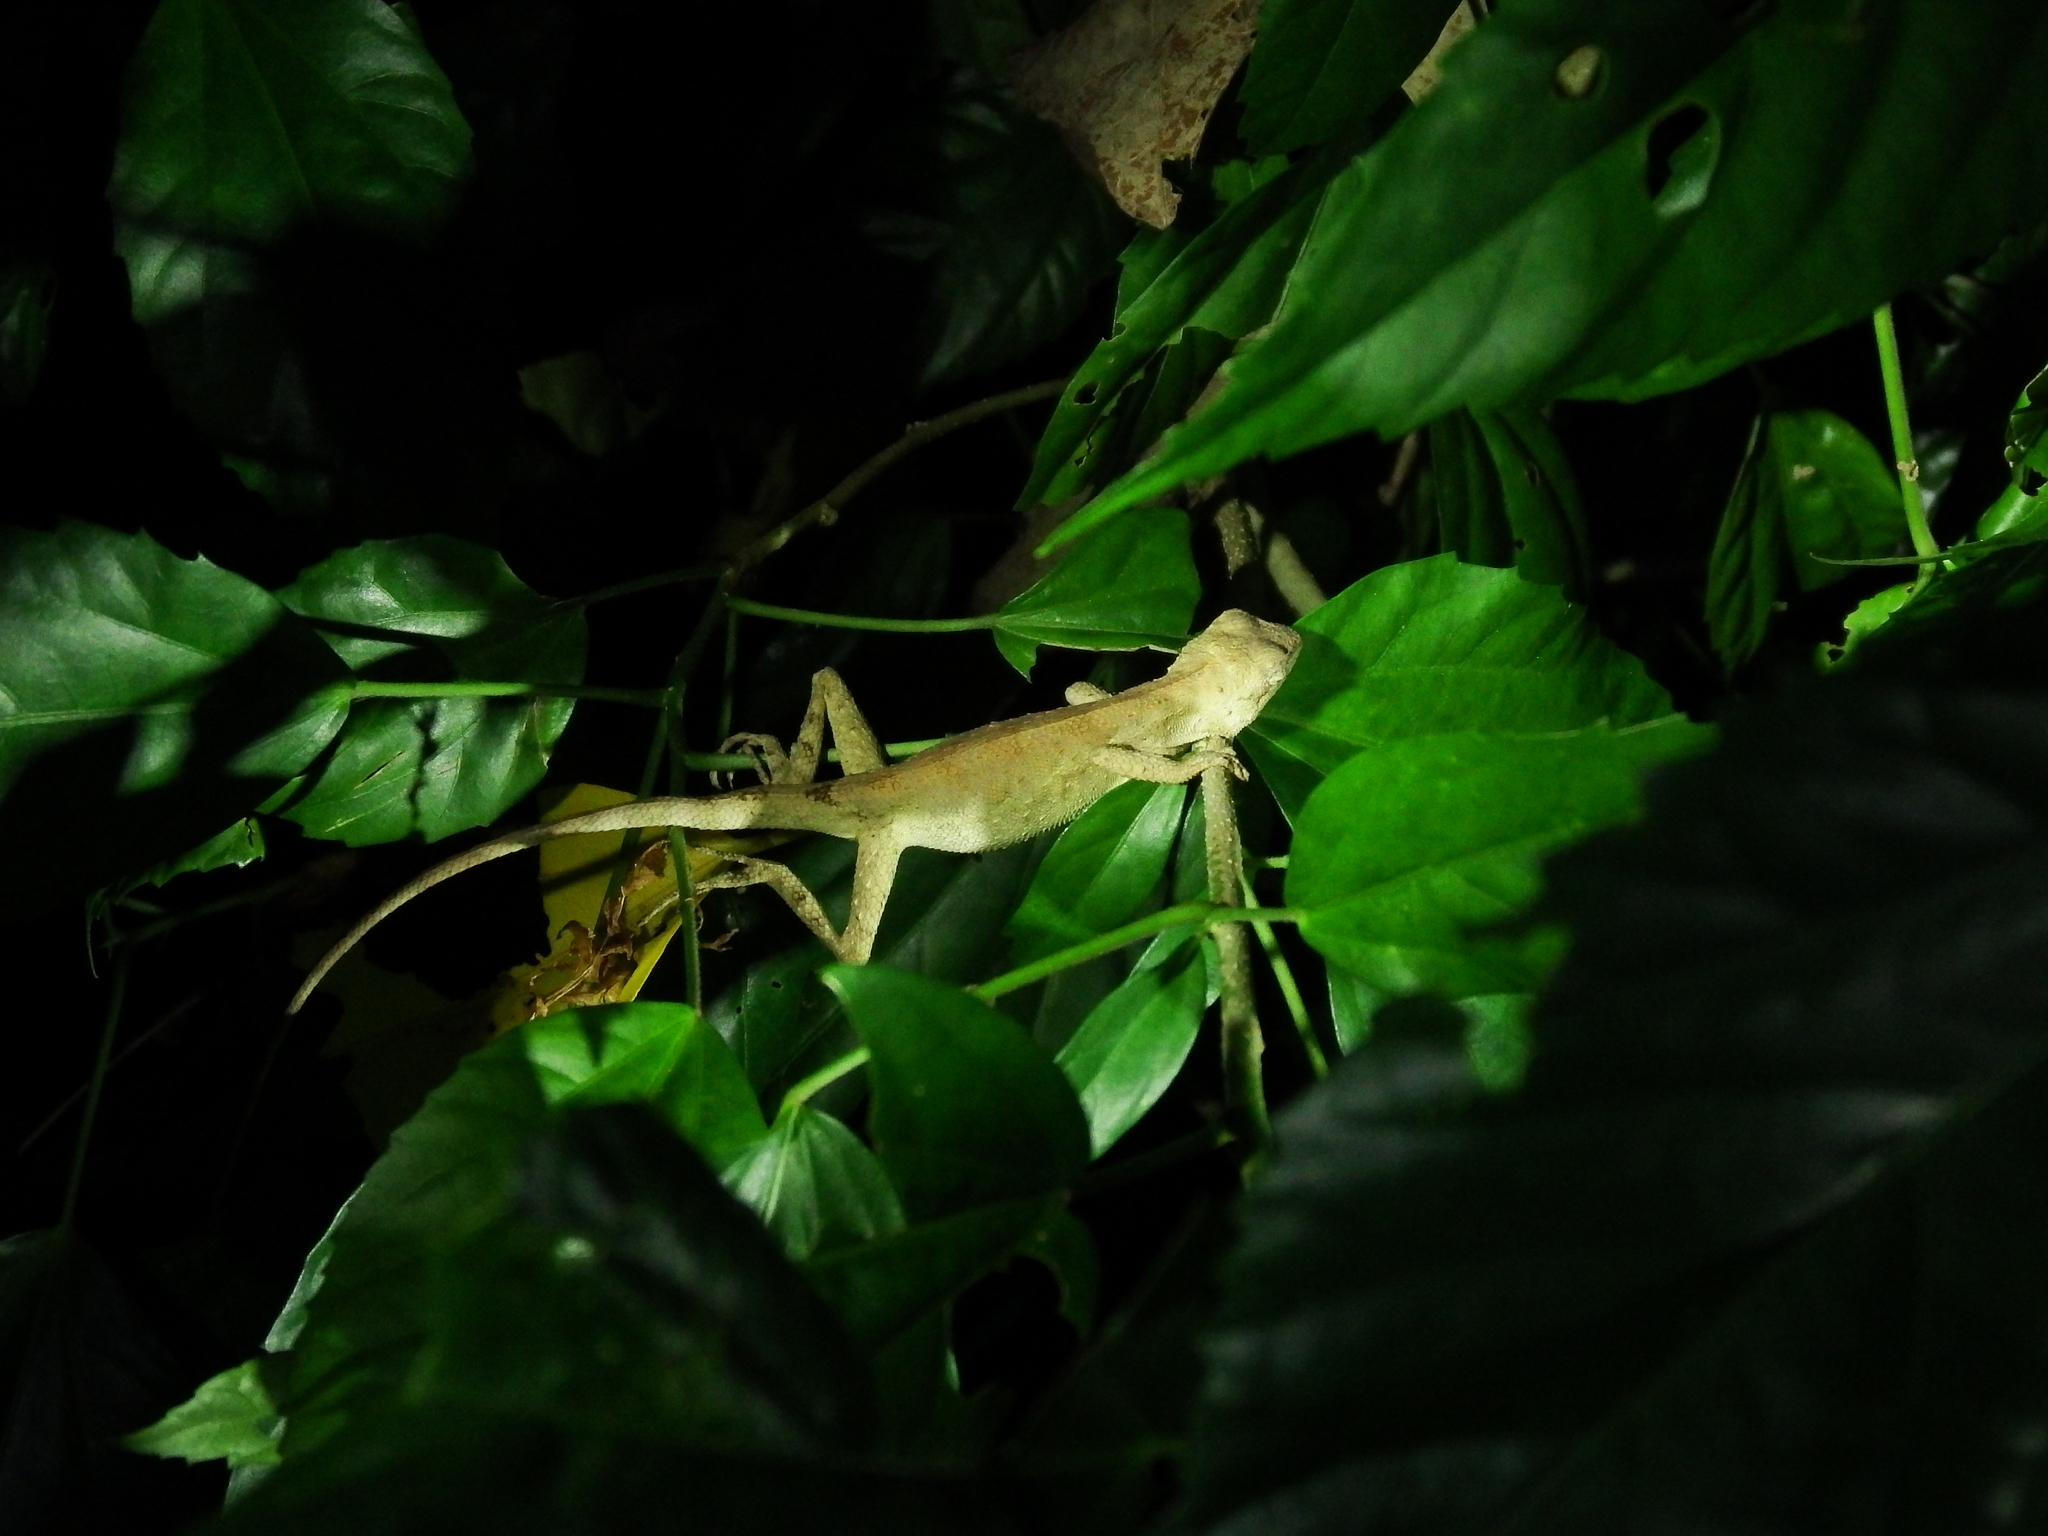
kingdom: Animalia
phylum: Chordata
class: Squamata
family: Agamidae
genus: Diploderma
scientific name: Diploderma swinhonis
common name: Taiwan japalure
